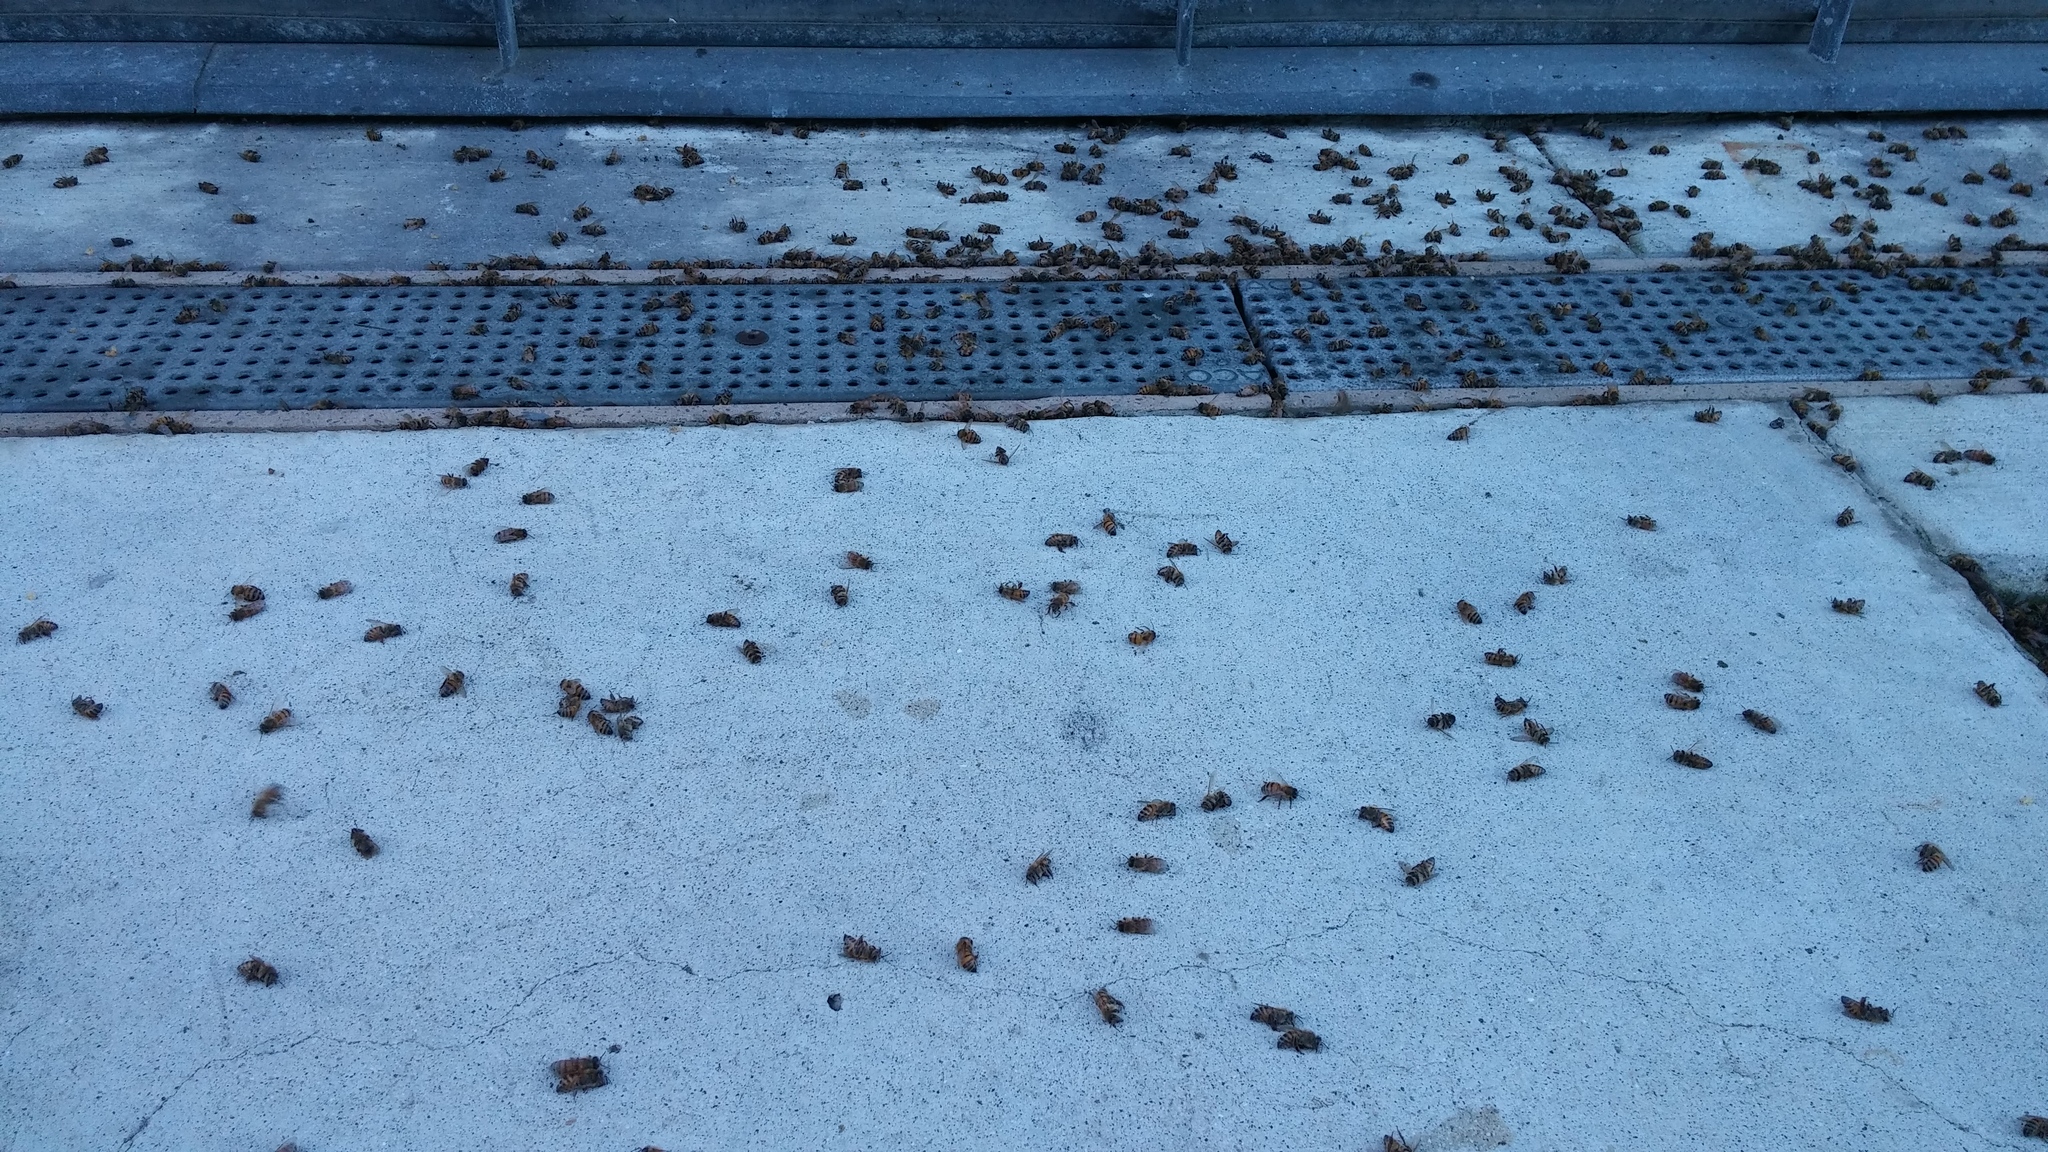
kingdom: Animalia
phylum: Arthropoda
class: Insecta
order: Hymenoptera
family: Apidae
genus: Apis
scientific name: Apis mellifera
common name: Honey bee
